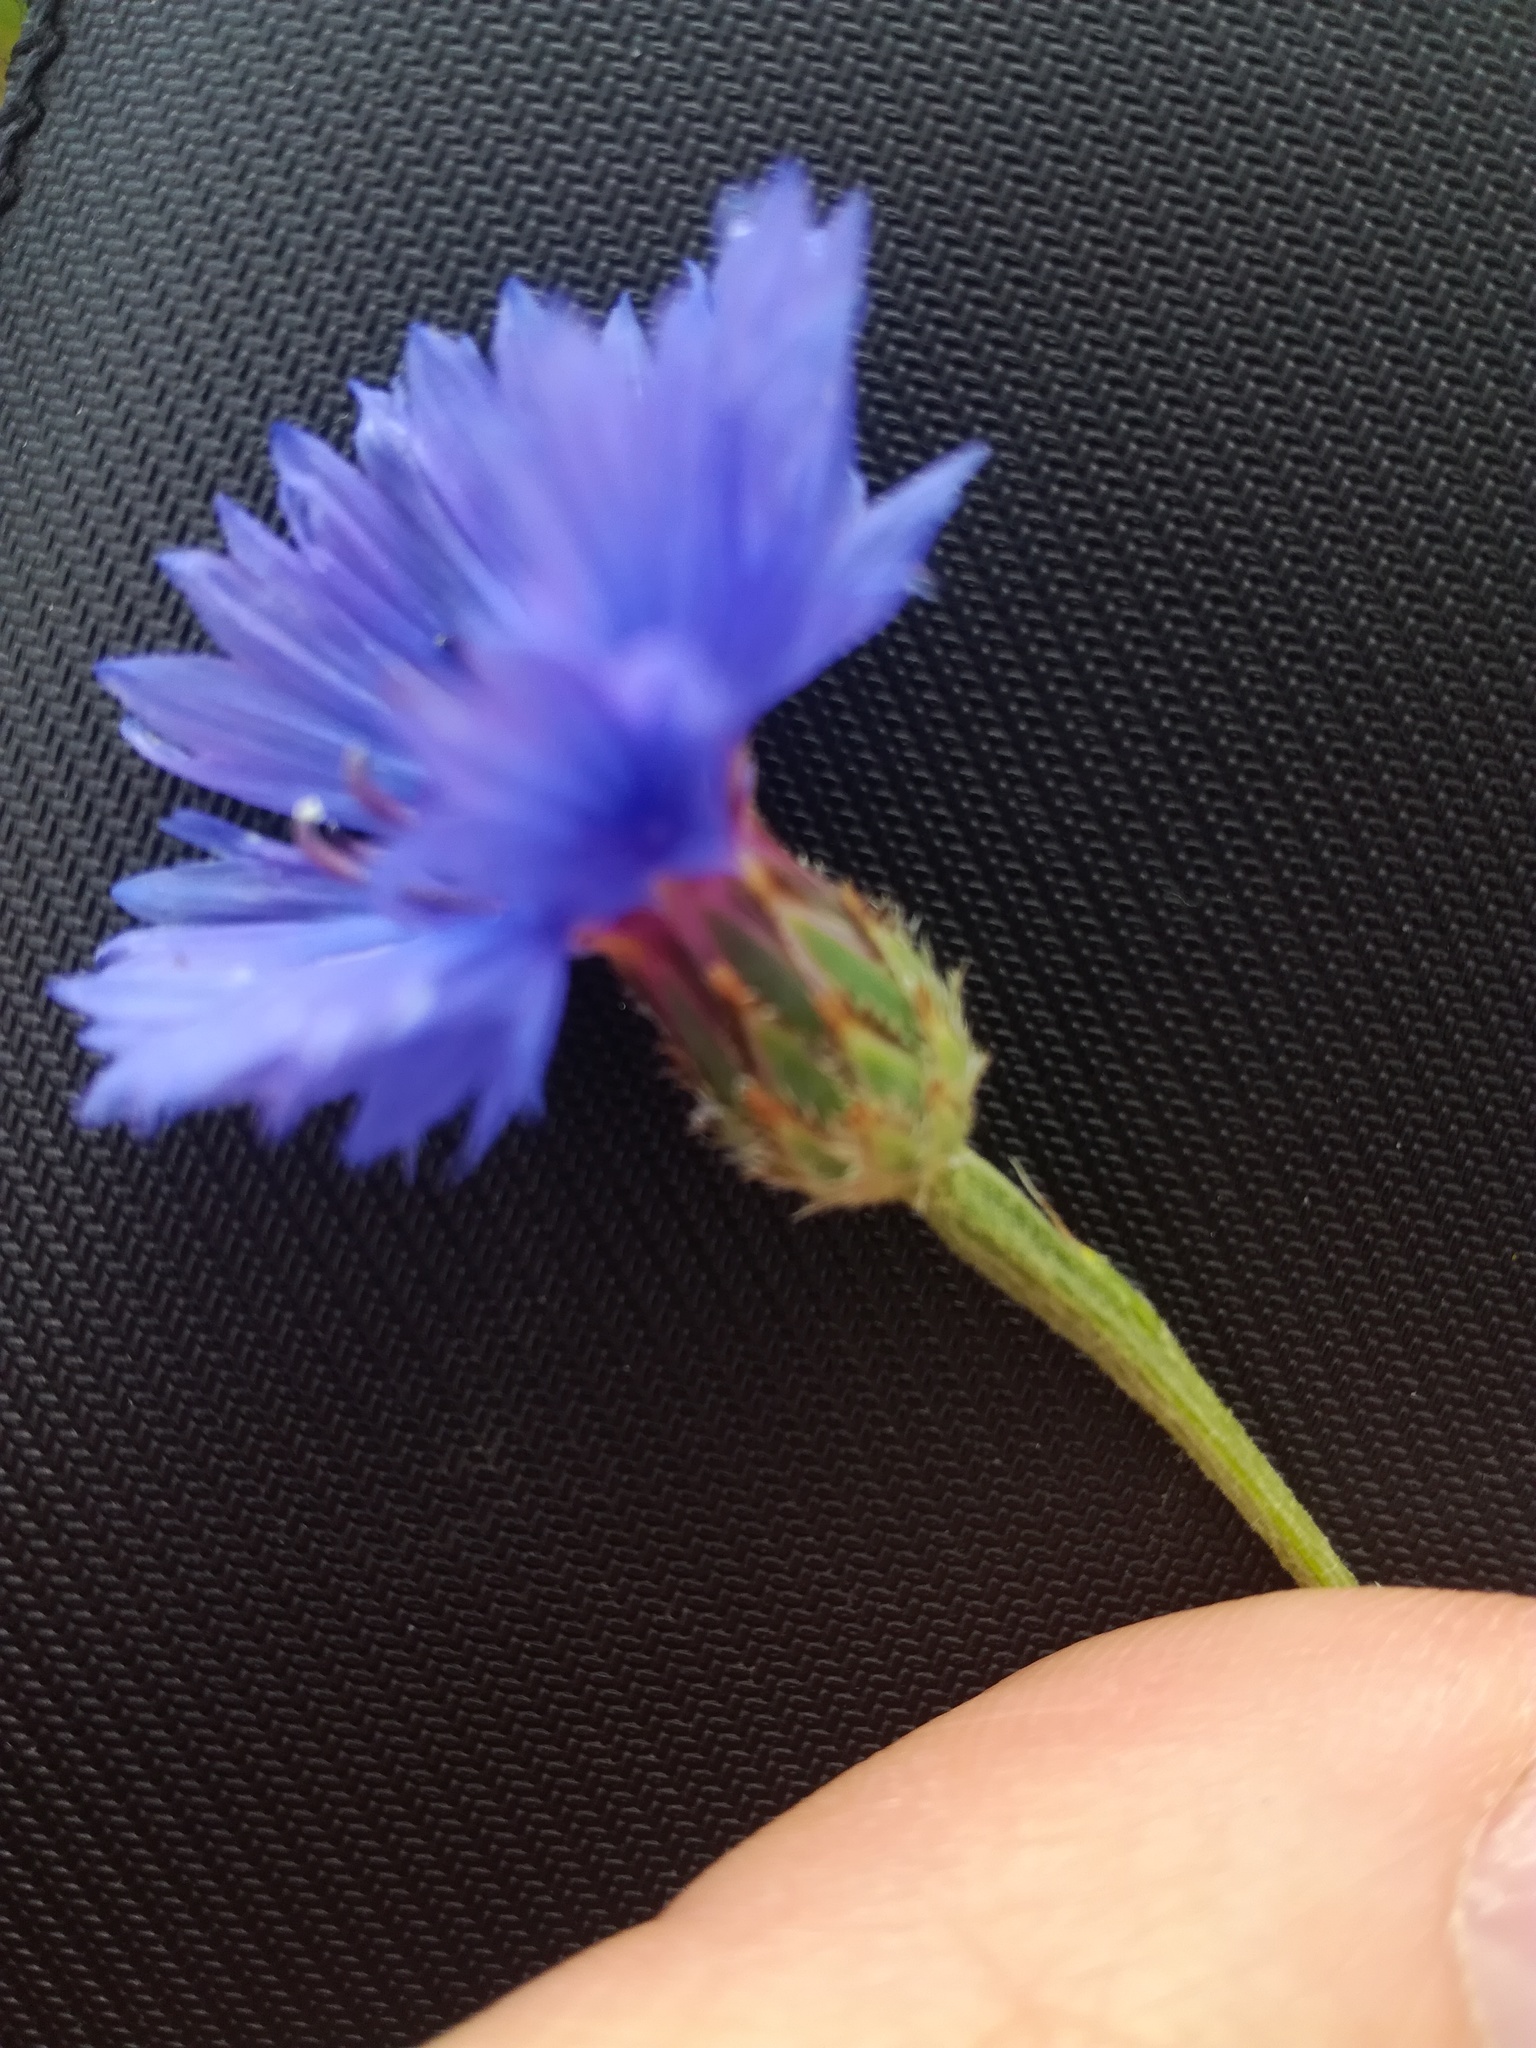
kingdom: Plantae
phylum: Tracheophyta
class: Magnoliopsida
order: Asterales
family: Asteraceae
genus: Centaurea
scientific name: Centaurea cyanus
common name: Cornflower
